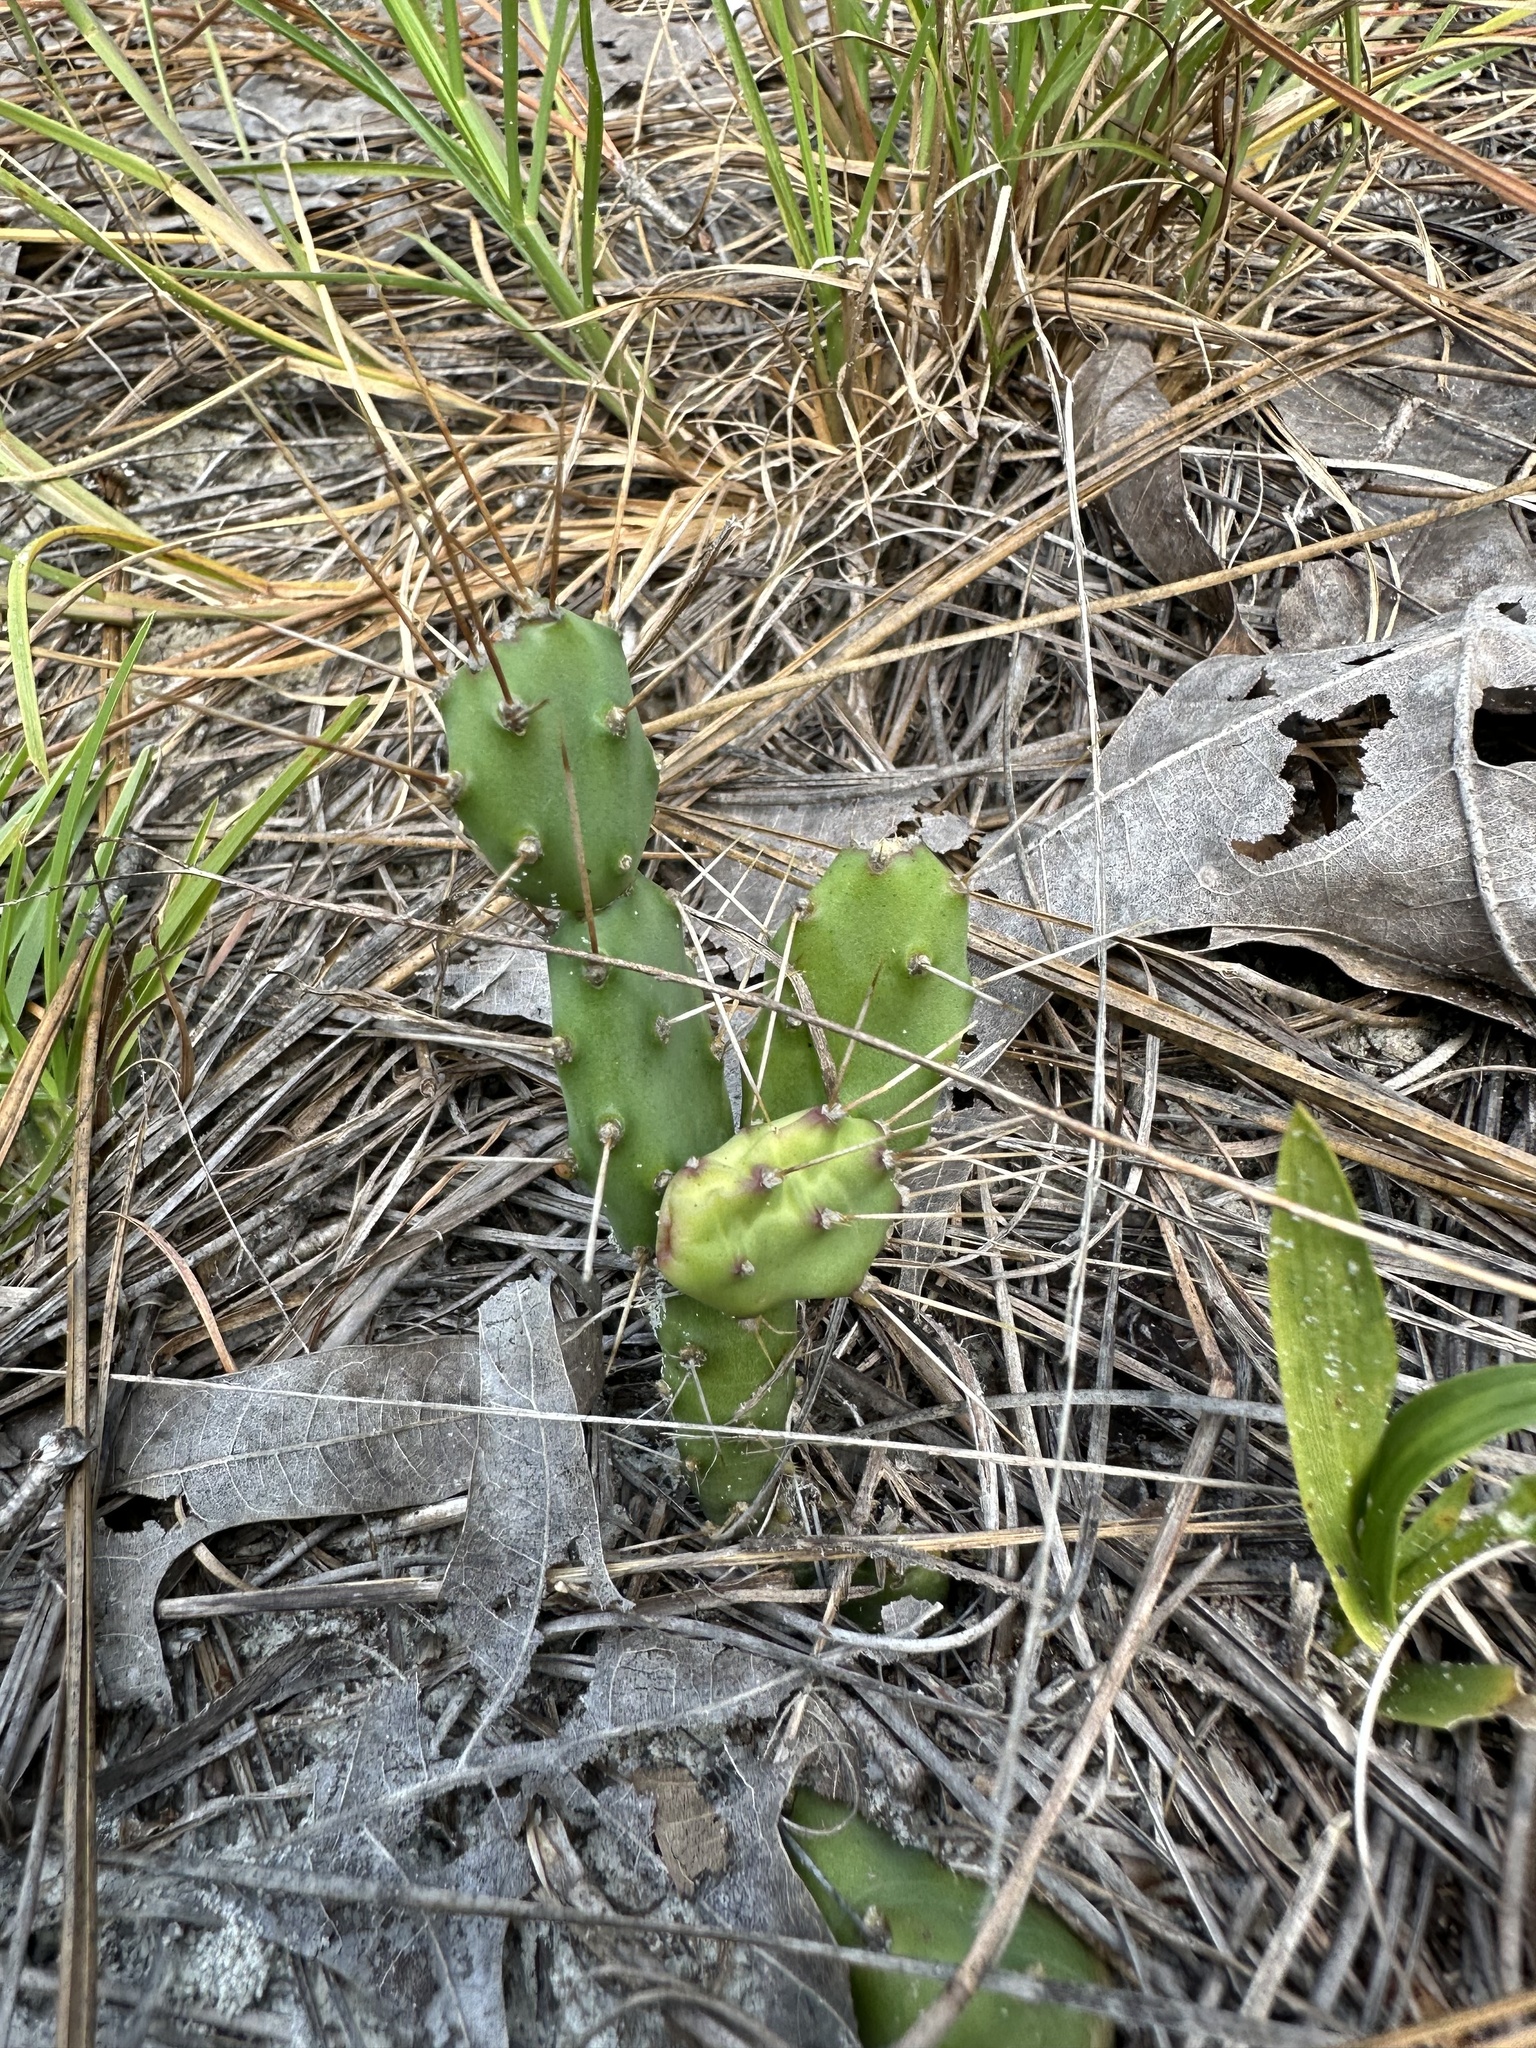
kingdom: Plantae
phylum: Tracheophyta
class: Magnoliopsida
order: Caryophyllales
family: Cactaceae
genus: Opuntia
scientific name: Opuntia drummondii
